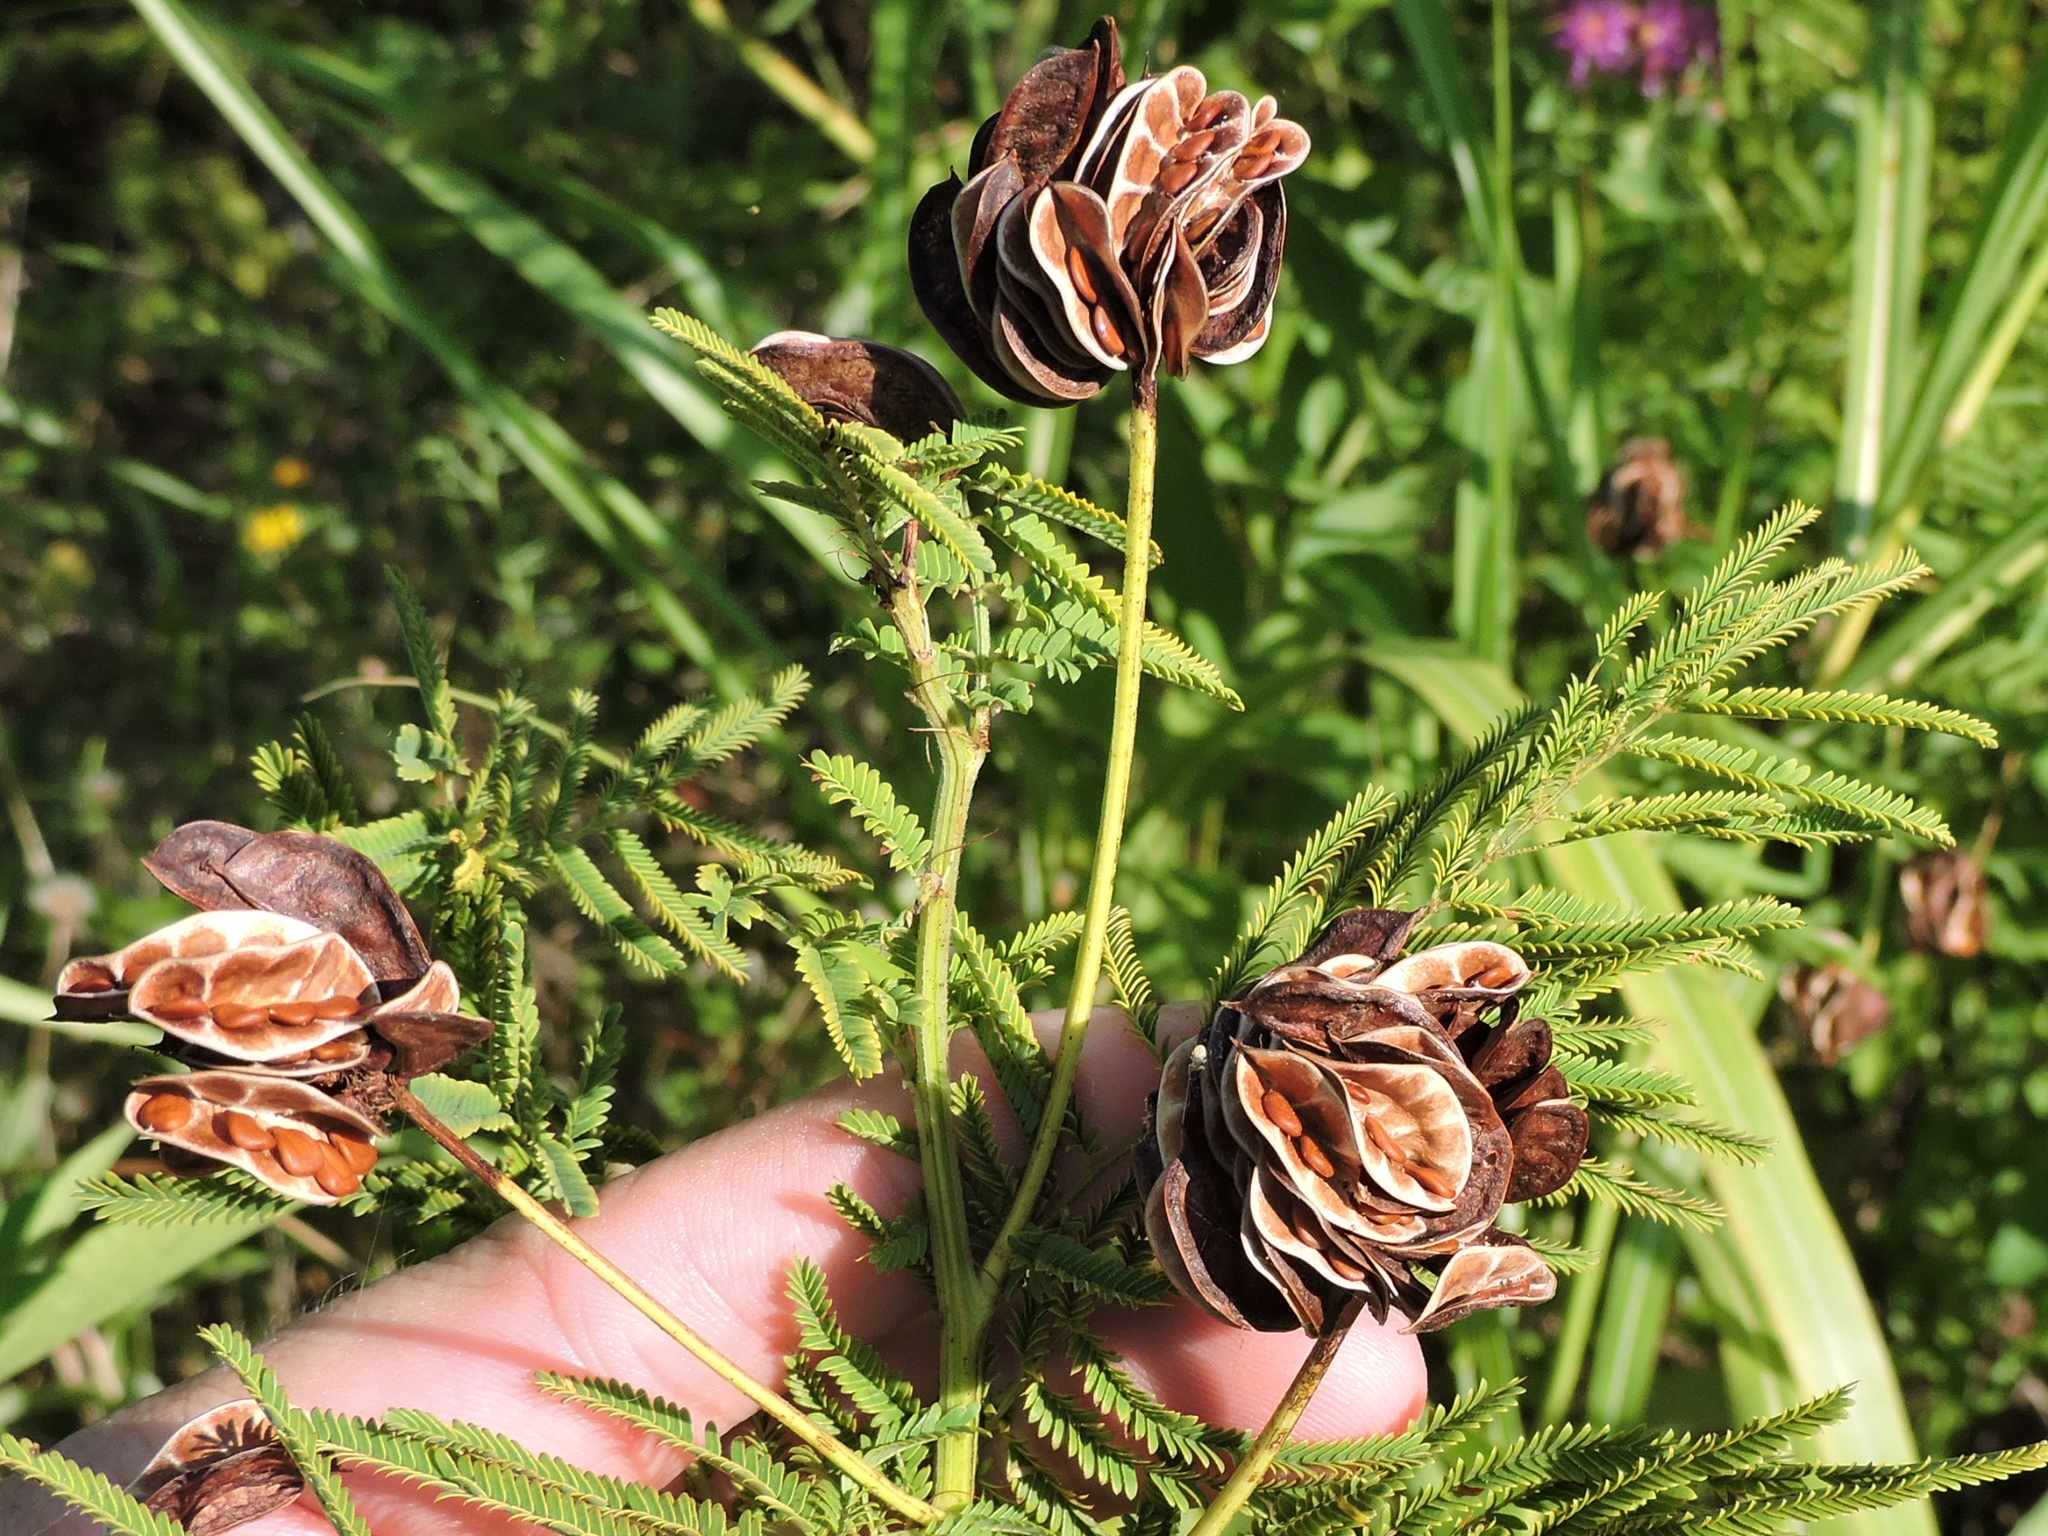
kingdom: Plantae
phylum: Tracheophyta
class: Magnoliopsida
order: Fabales
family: Fabaceae
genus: Desmanthus
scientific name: Desmanthus illinoensis
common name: Illinois bundle-flower
